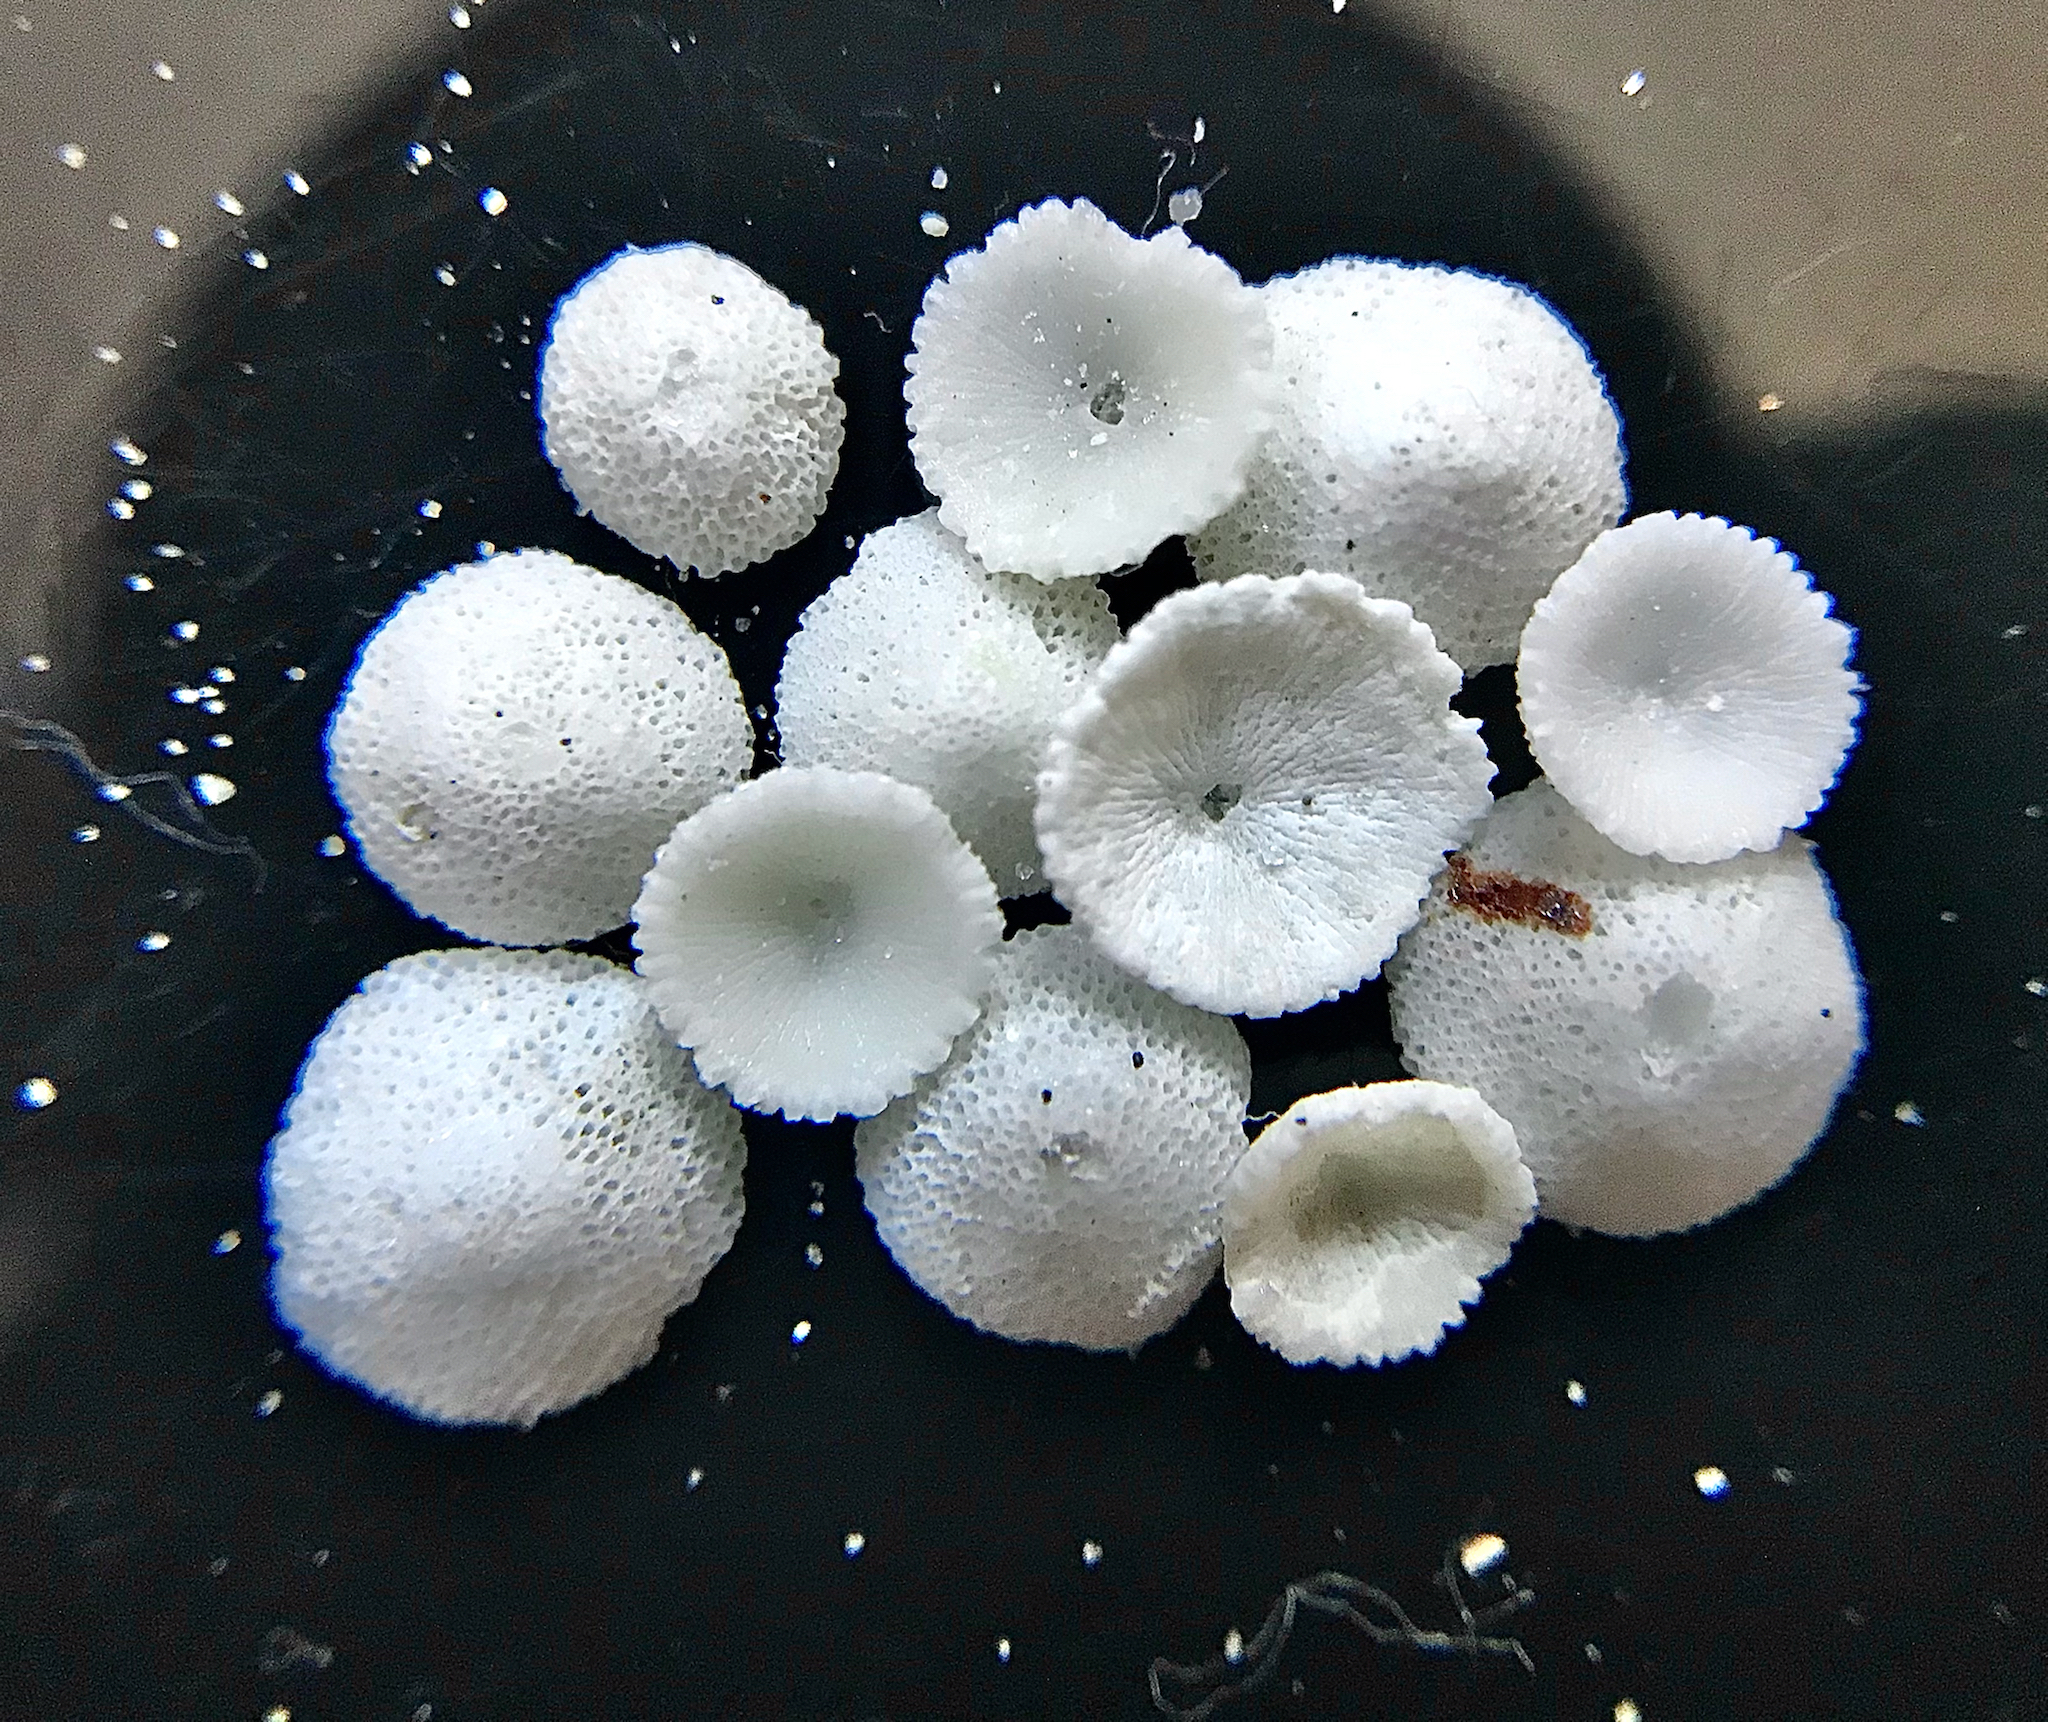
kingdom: Animalia
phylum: Bryozoa
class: Gymnolaemata
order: Cheilostomatida
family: Cupuladriidae
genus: Discoporella
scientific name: Discoporella umbellata
